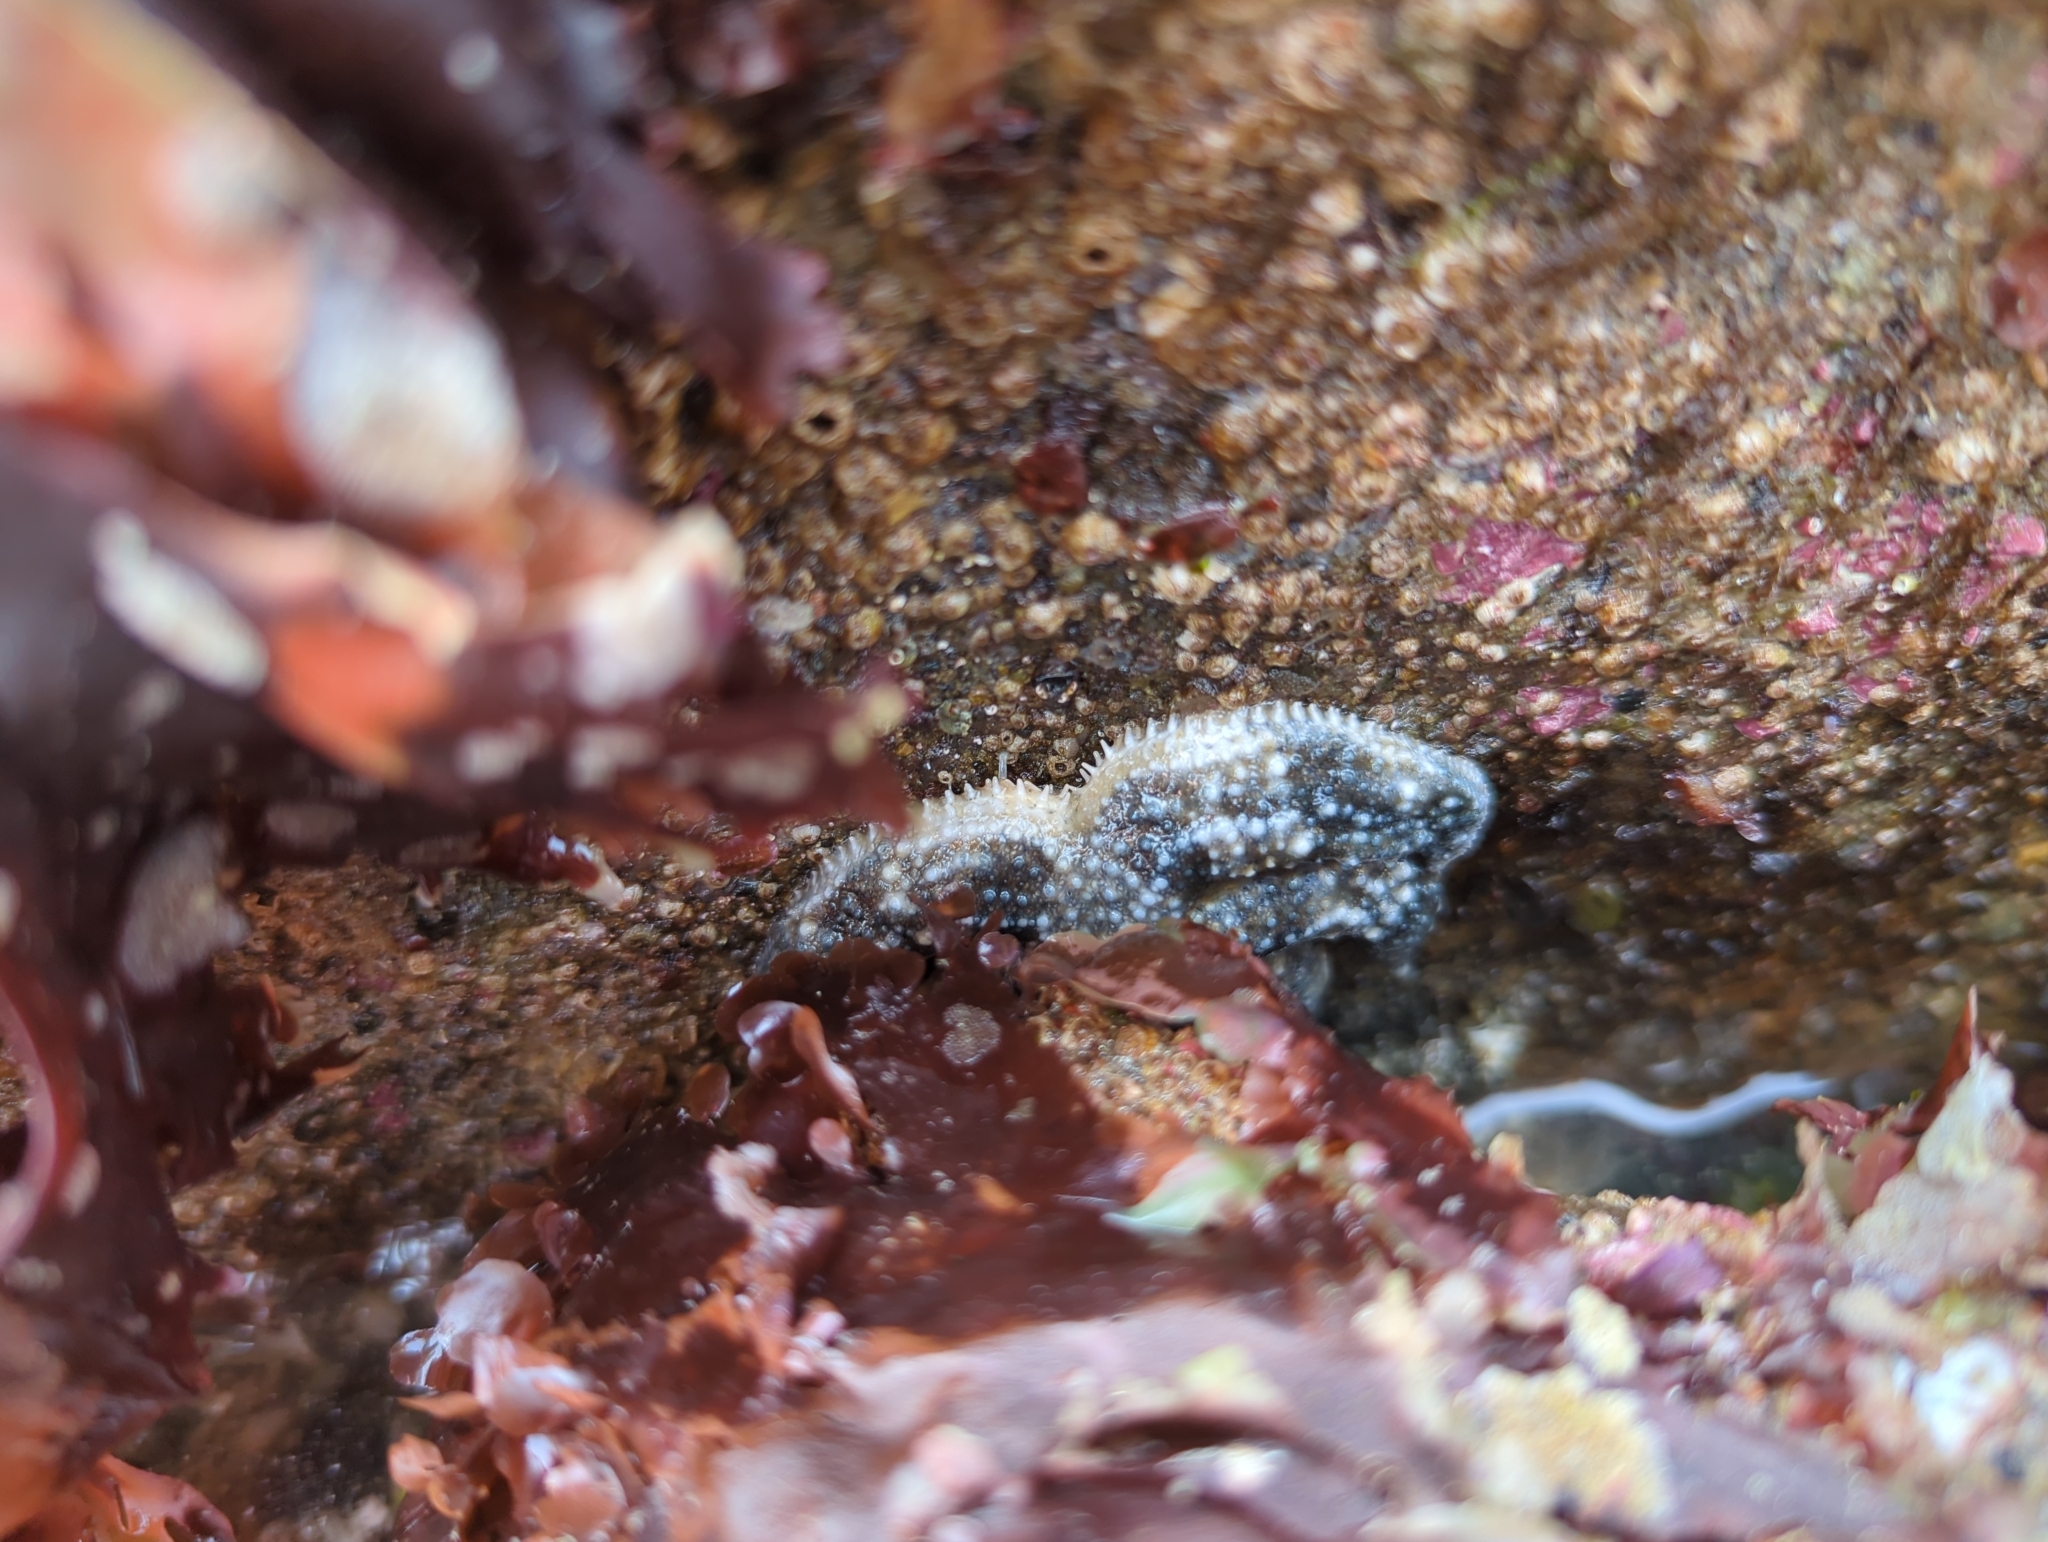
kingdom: Animalia
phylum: Echinodermata
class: Asteroidea
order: Forcipulatida
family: Asteriidae
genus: Evasterias
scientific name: Evasterias troschelii
